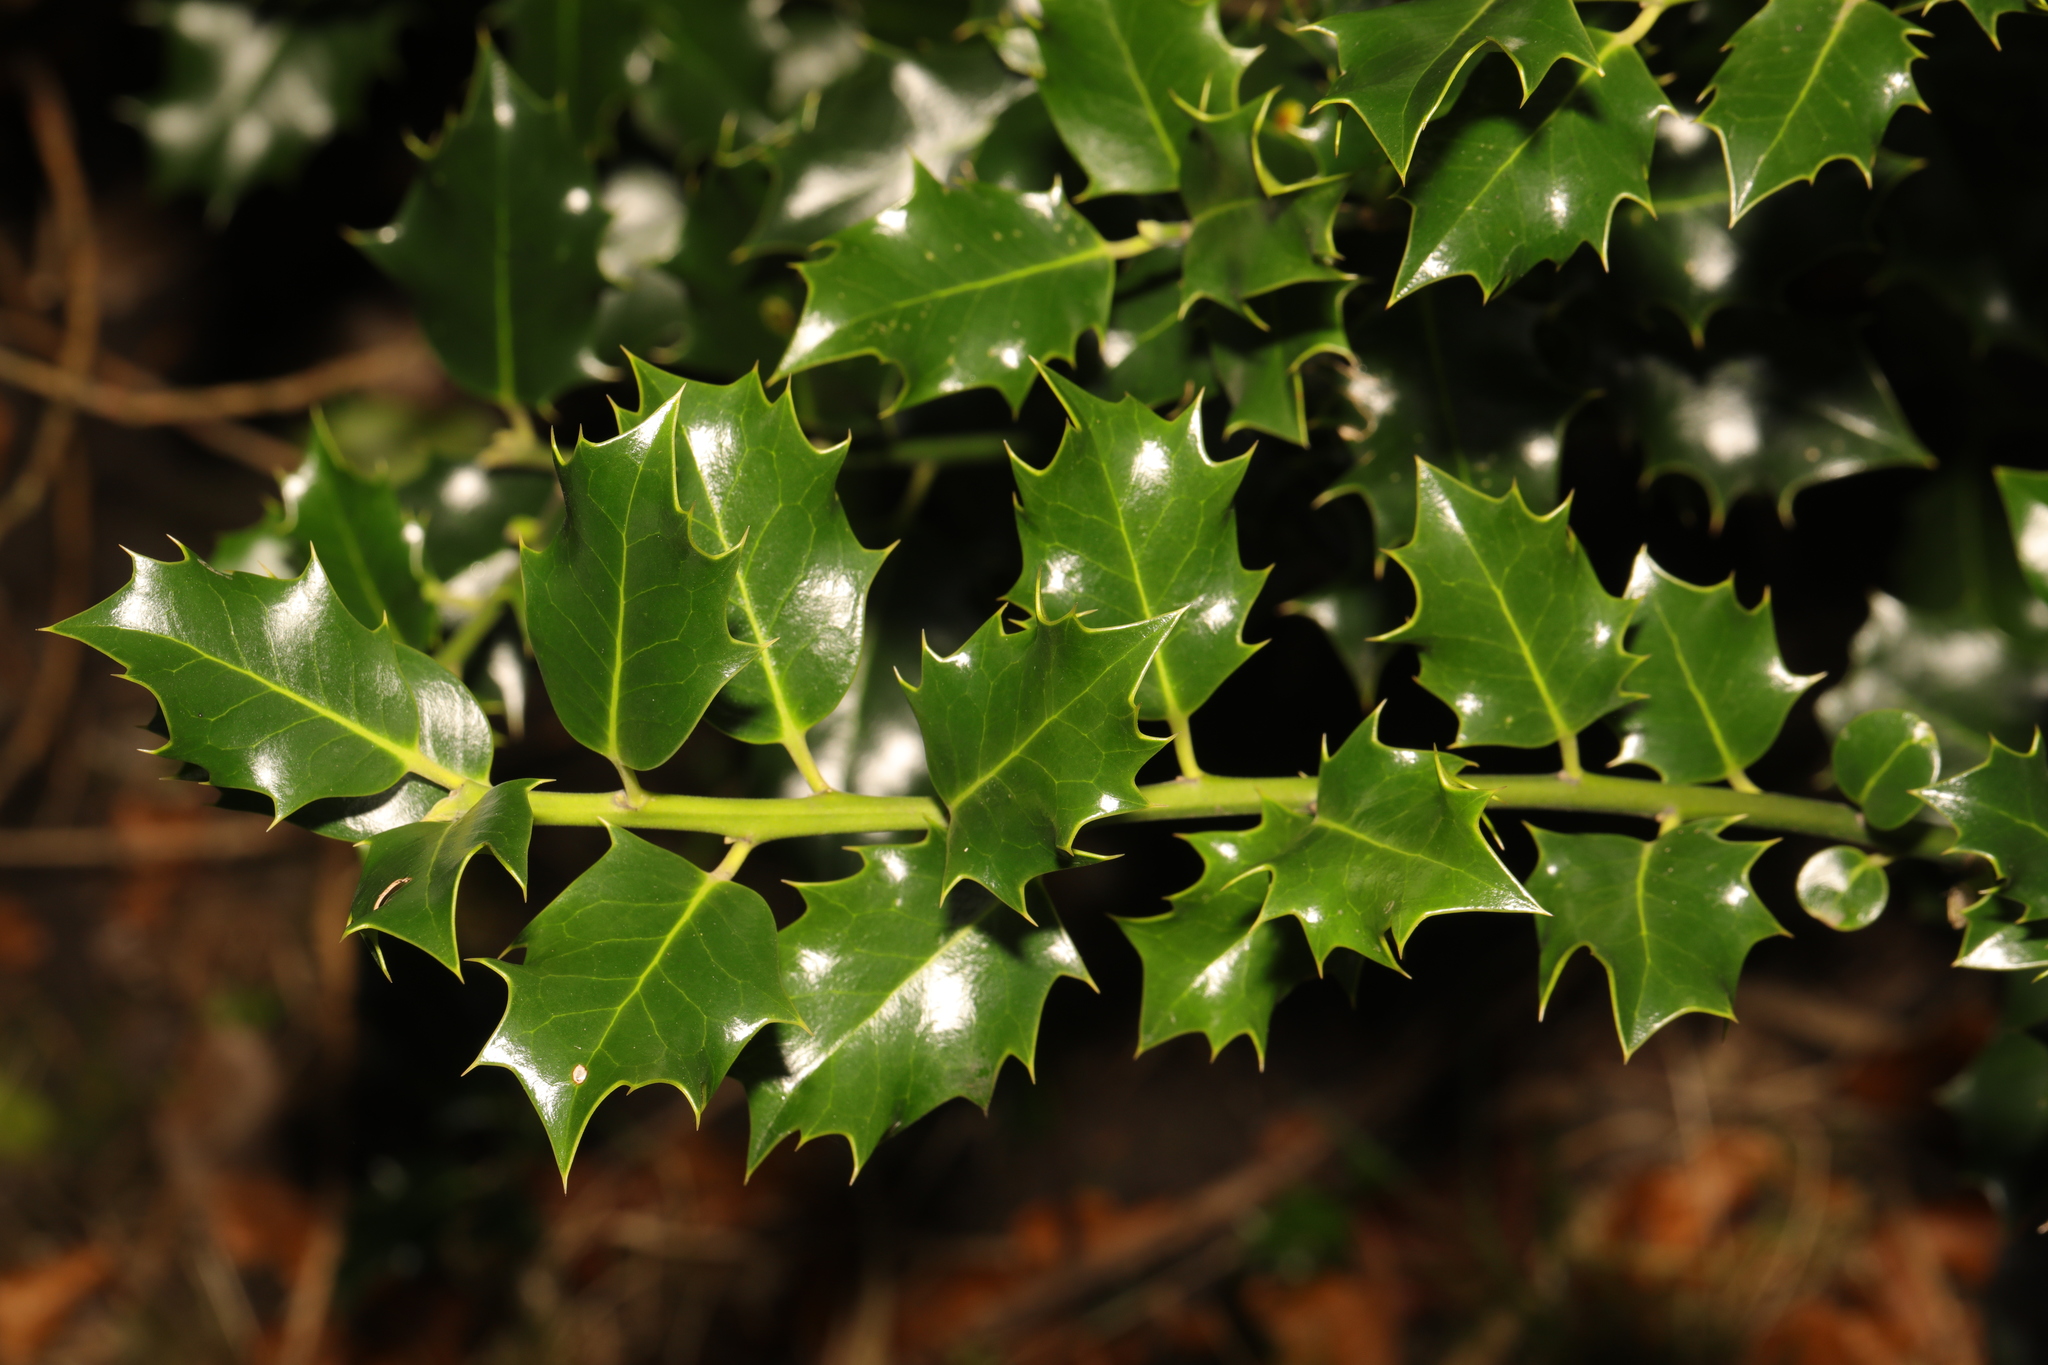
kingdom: Plantae
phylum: Tracheophyta
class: Magnoliopsida
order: Aquifoliales
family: Aquifoliaceae
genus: Ilex
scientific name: Ilex aquifolium
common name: English holly
